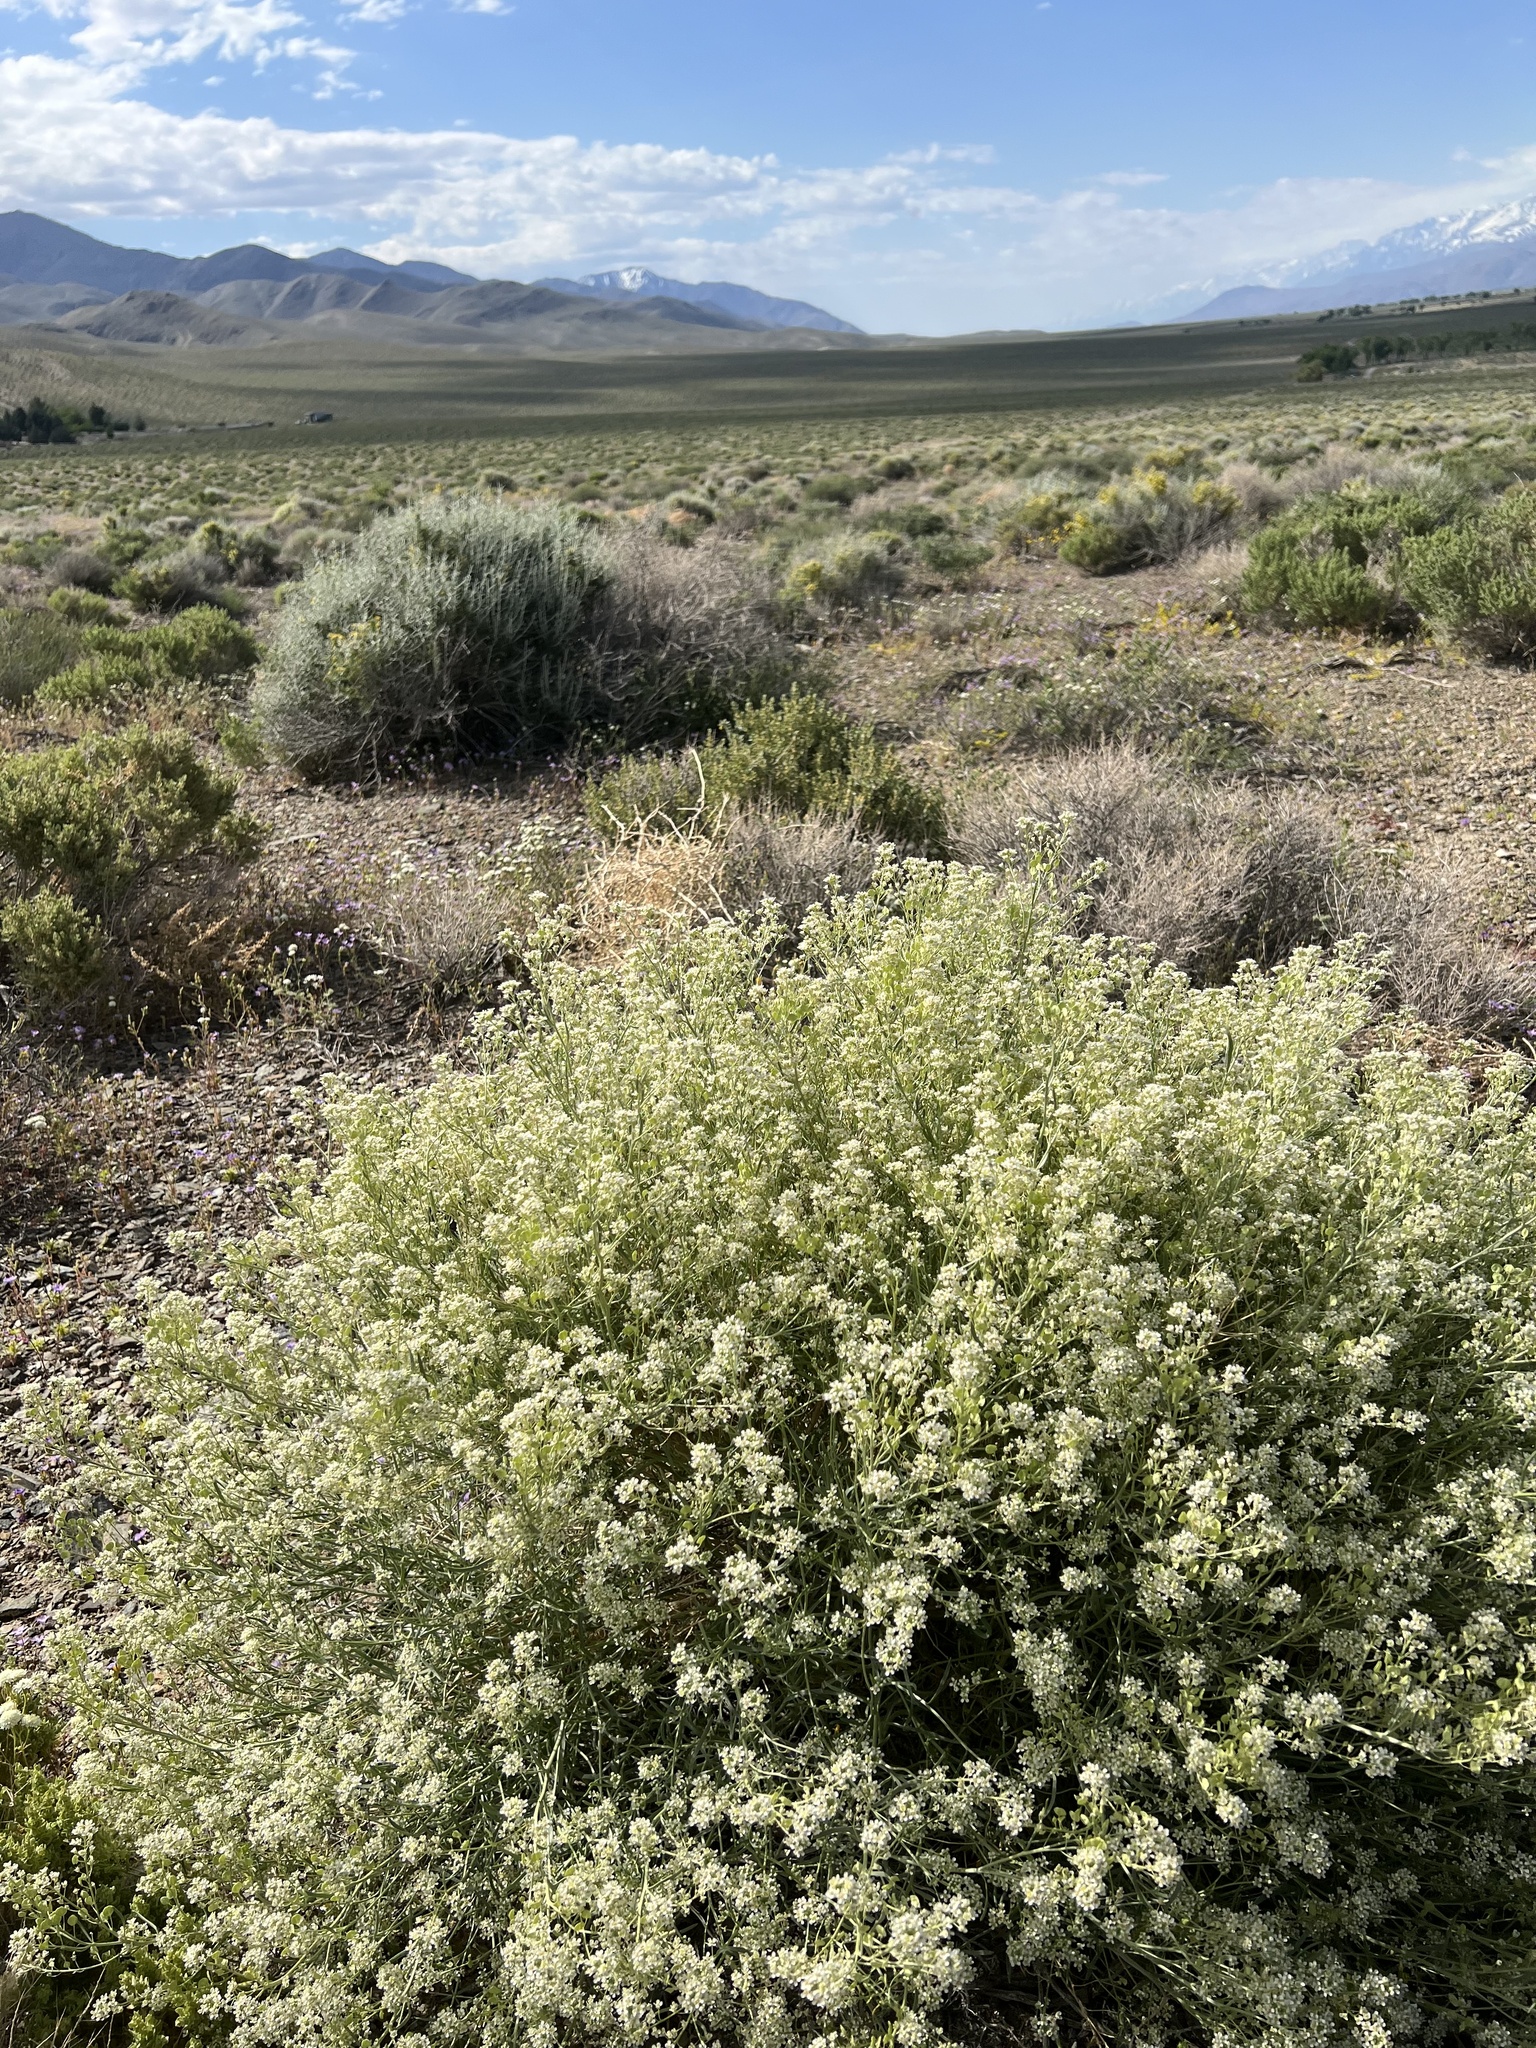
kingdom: Plantae
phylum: Tracheophyta
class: Magnoliopsida
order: Brassicales
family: Brassicaceae
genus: Lepidium
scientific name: Lepidium fremontii
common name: Fremont's pepperwort
